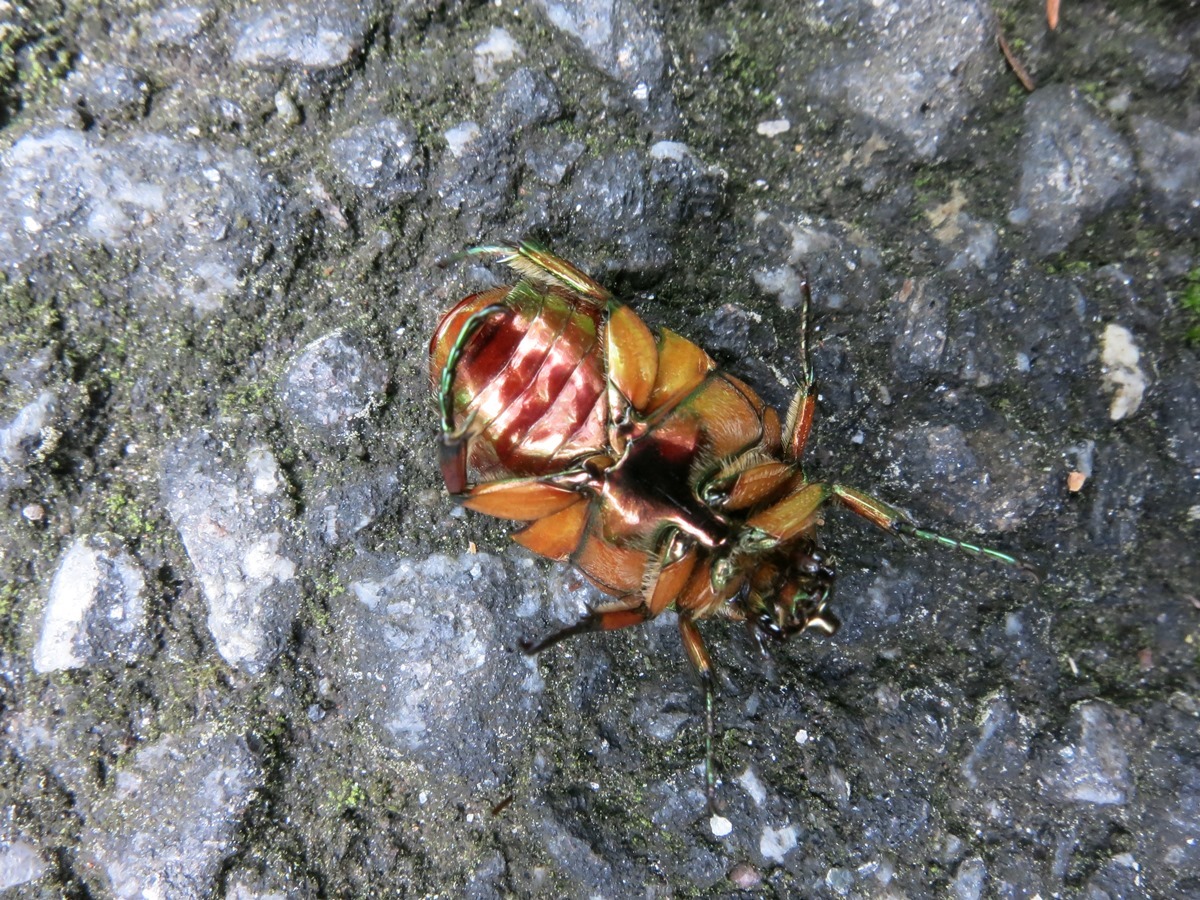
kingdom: Animalia
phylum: Arthropoda
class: Insecta
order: Coleoptera
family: Scarabaeidae
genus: Cotinis
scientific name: Cotinis nitida
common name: Common green june beetle
